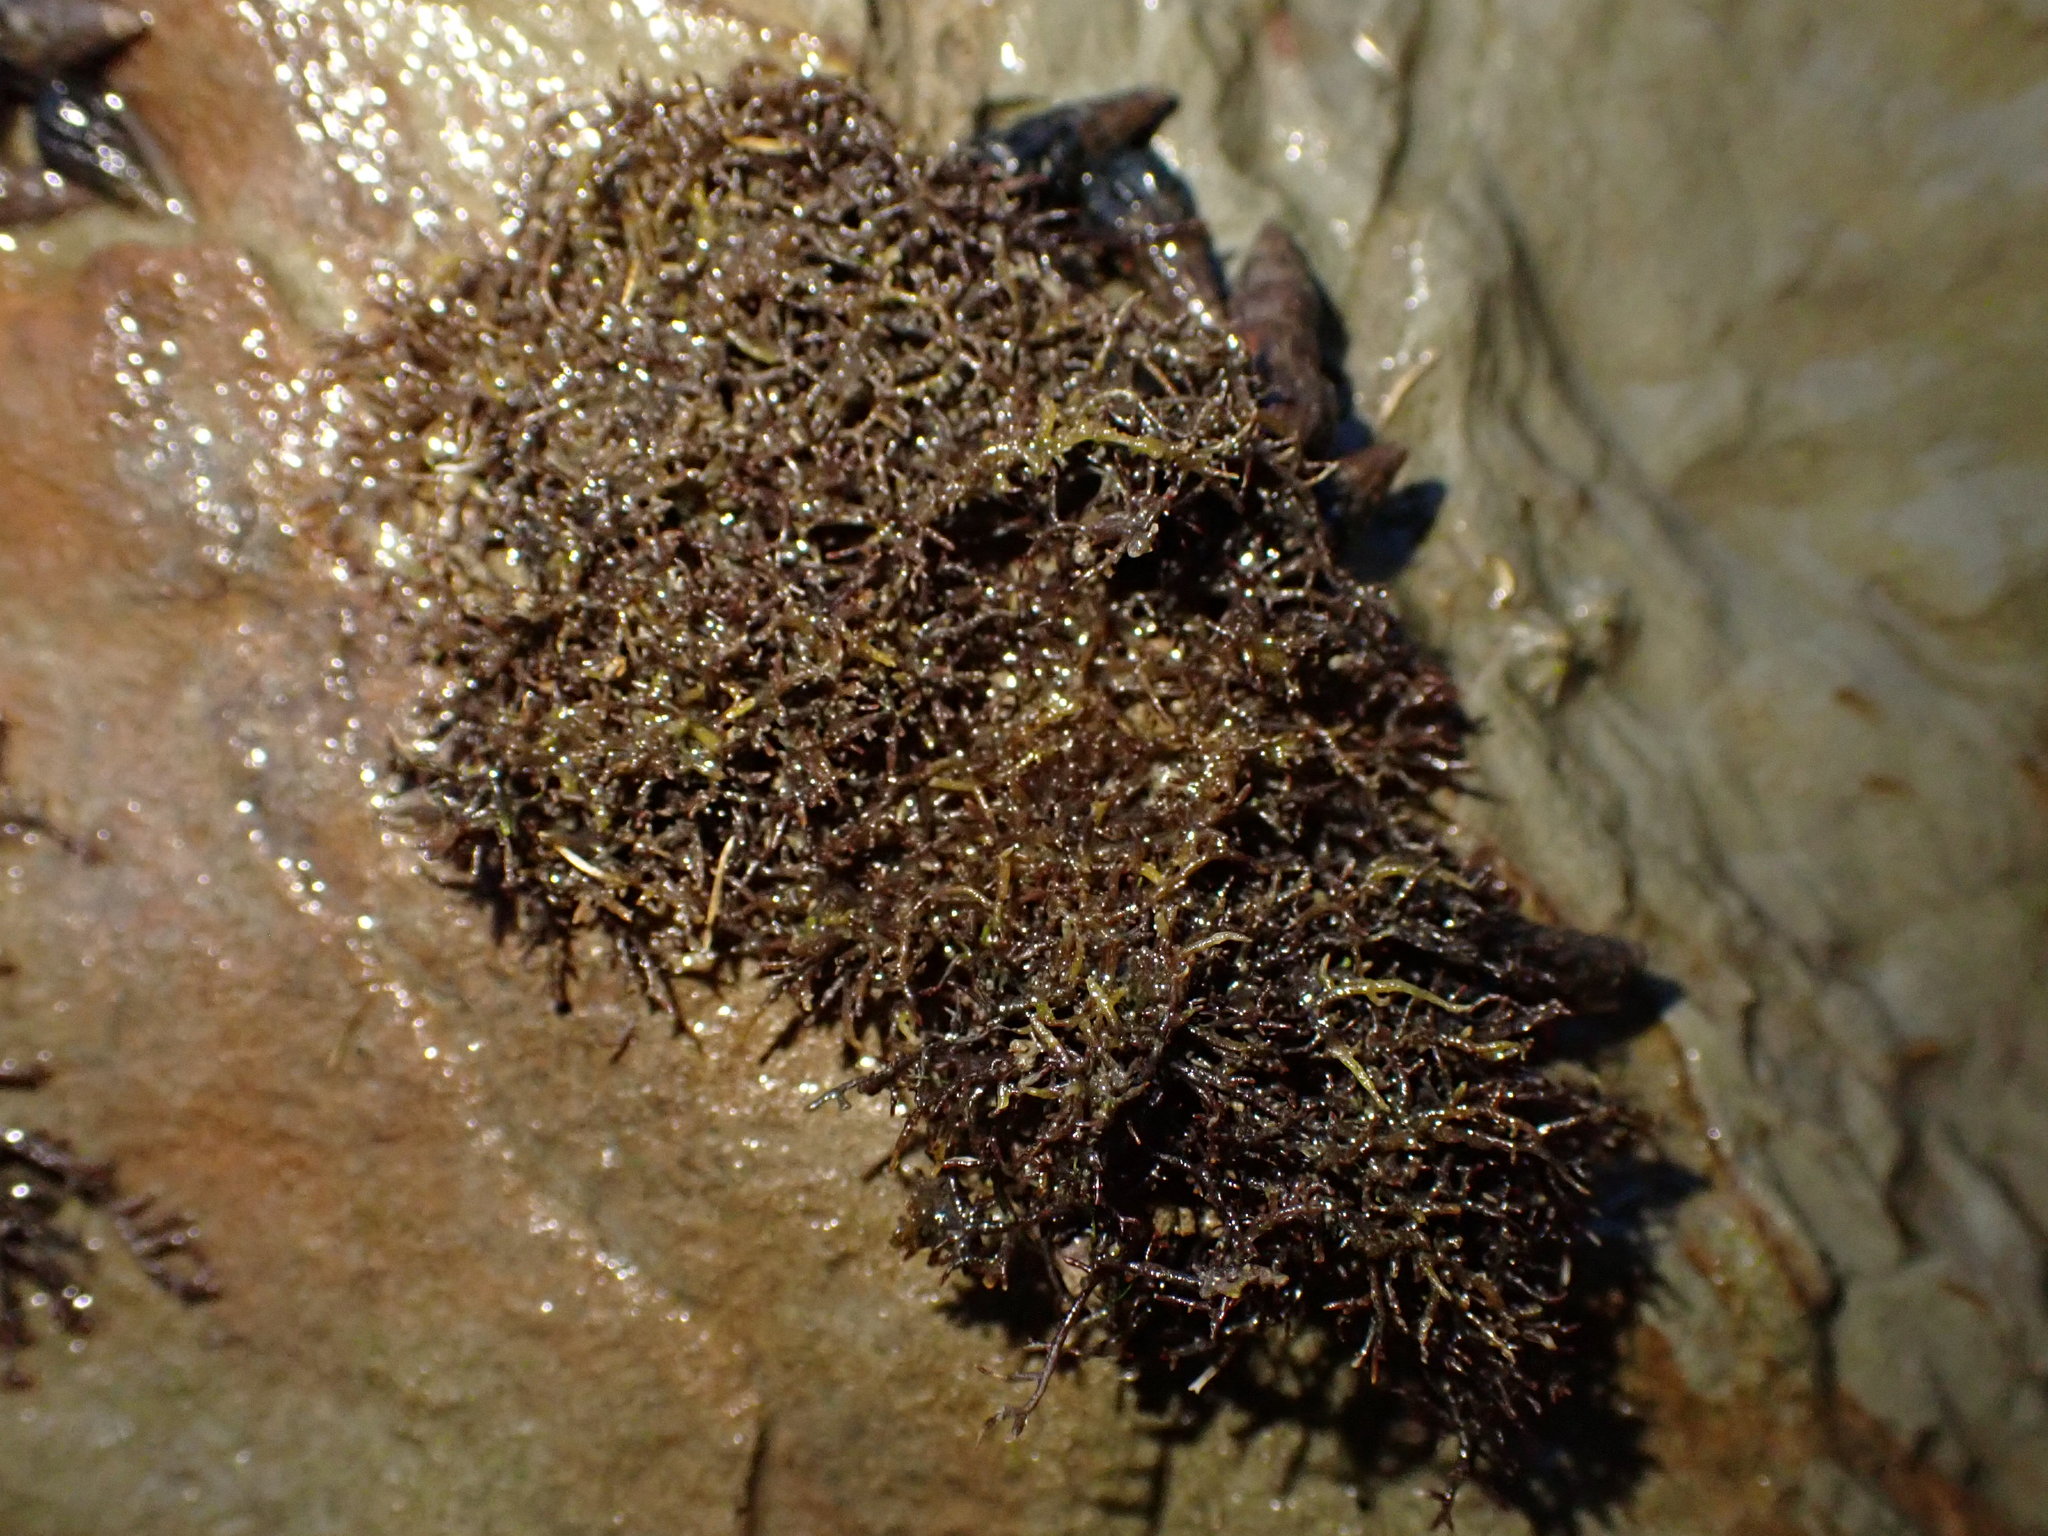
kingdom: Plantae
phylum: Rhodophyta
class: Florideophyceae
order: Gelidiales
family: Gelidiaceae
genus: Capreolia
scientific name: Capreolia implexa
